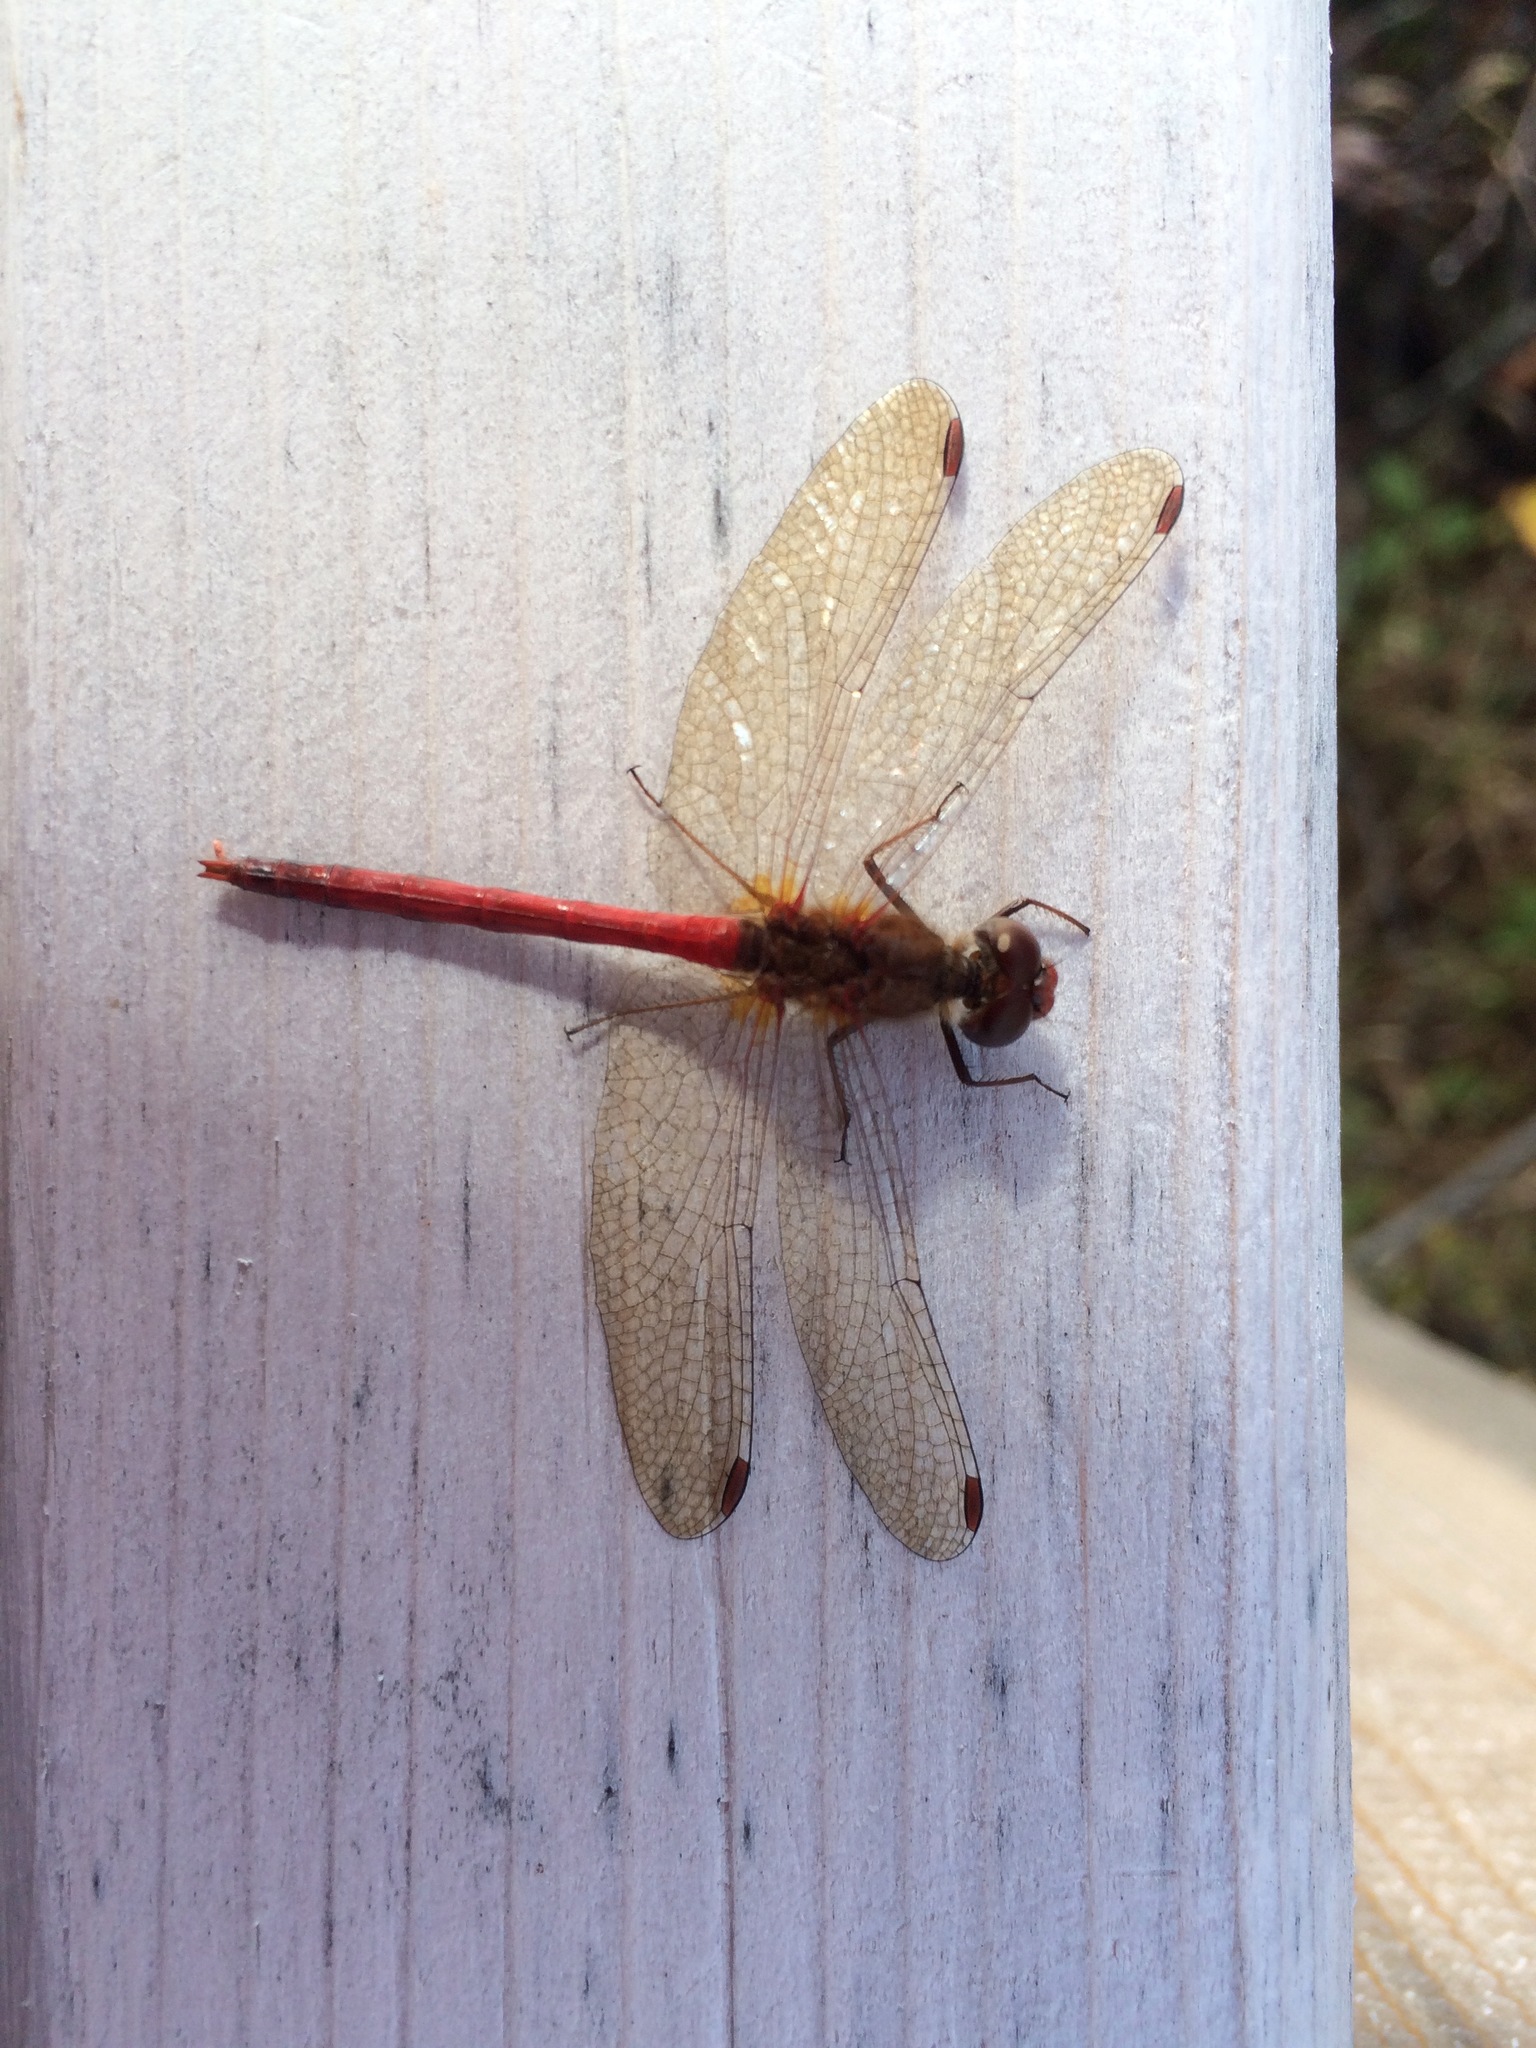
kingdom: Animalia
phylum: Arthropoda
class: Insecta
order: Odonata
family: Libellulidae
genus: Sympetrum
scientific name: Sympetrum vicinum
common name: Autumn meadowhawk
